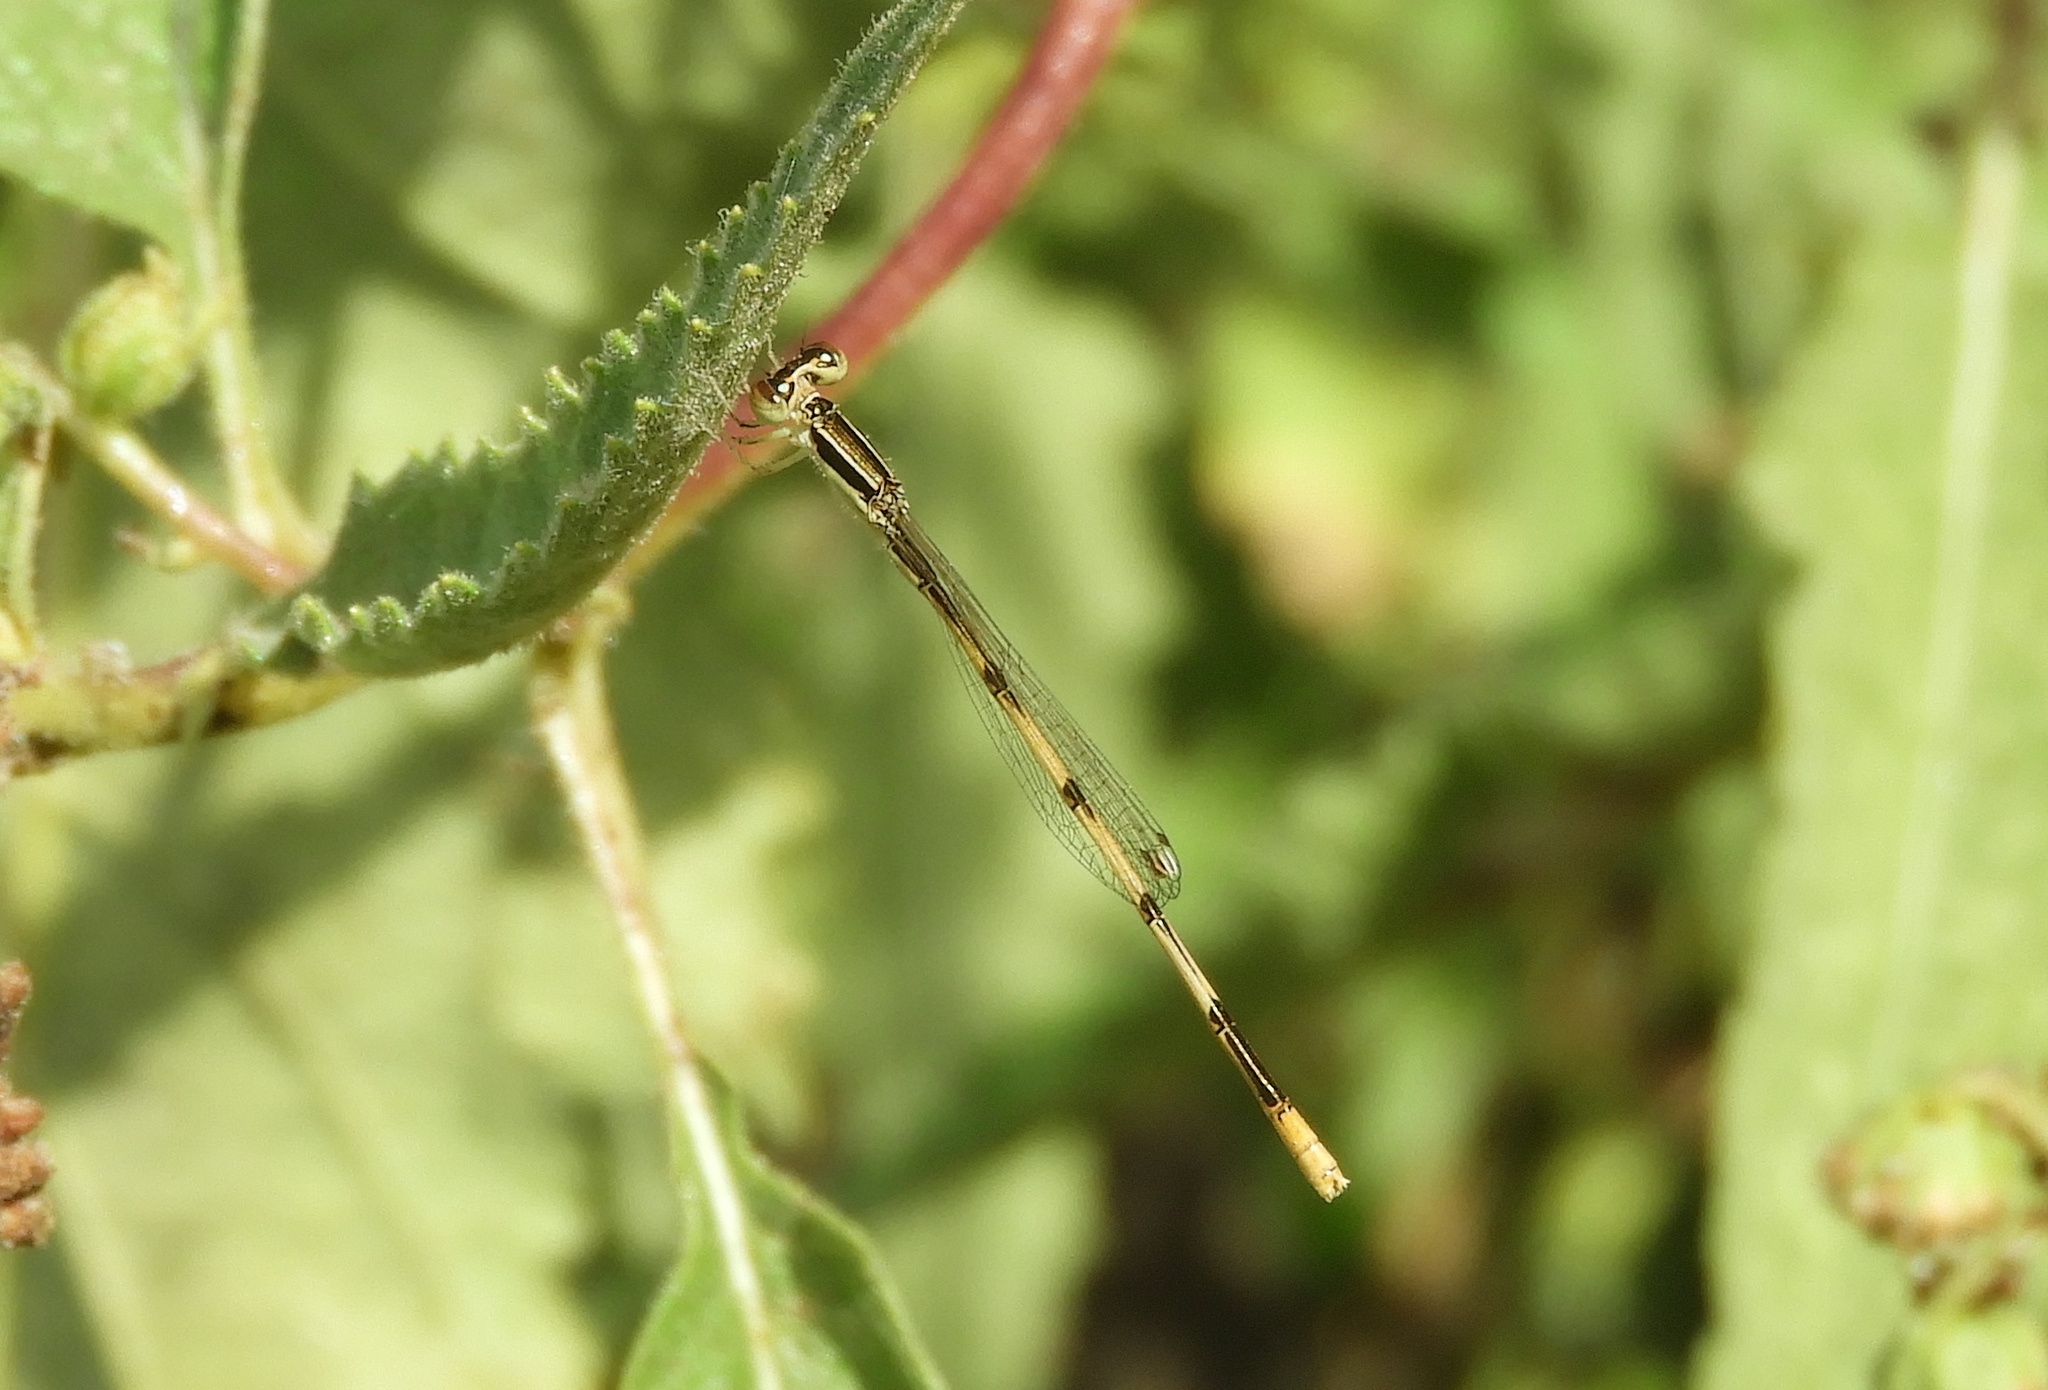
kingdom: Animalia
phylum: Arthropoda
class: Insecta
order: Odonata
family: Coenagrionidae
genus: Ischnura
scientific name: Ischnura hastata
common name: Citrine forktail
